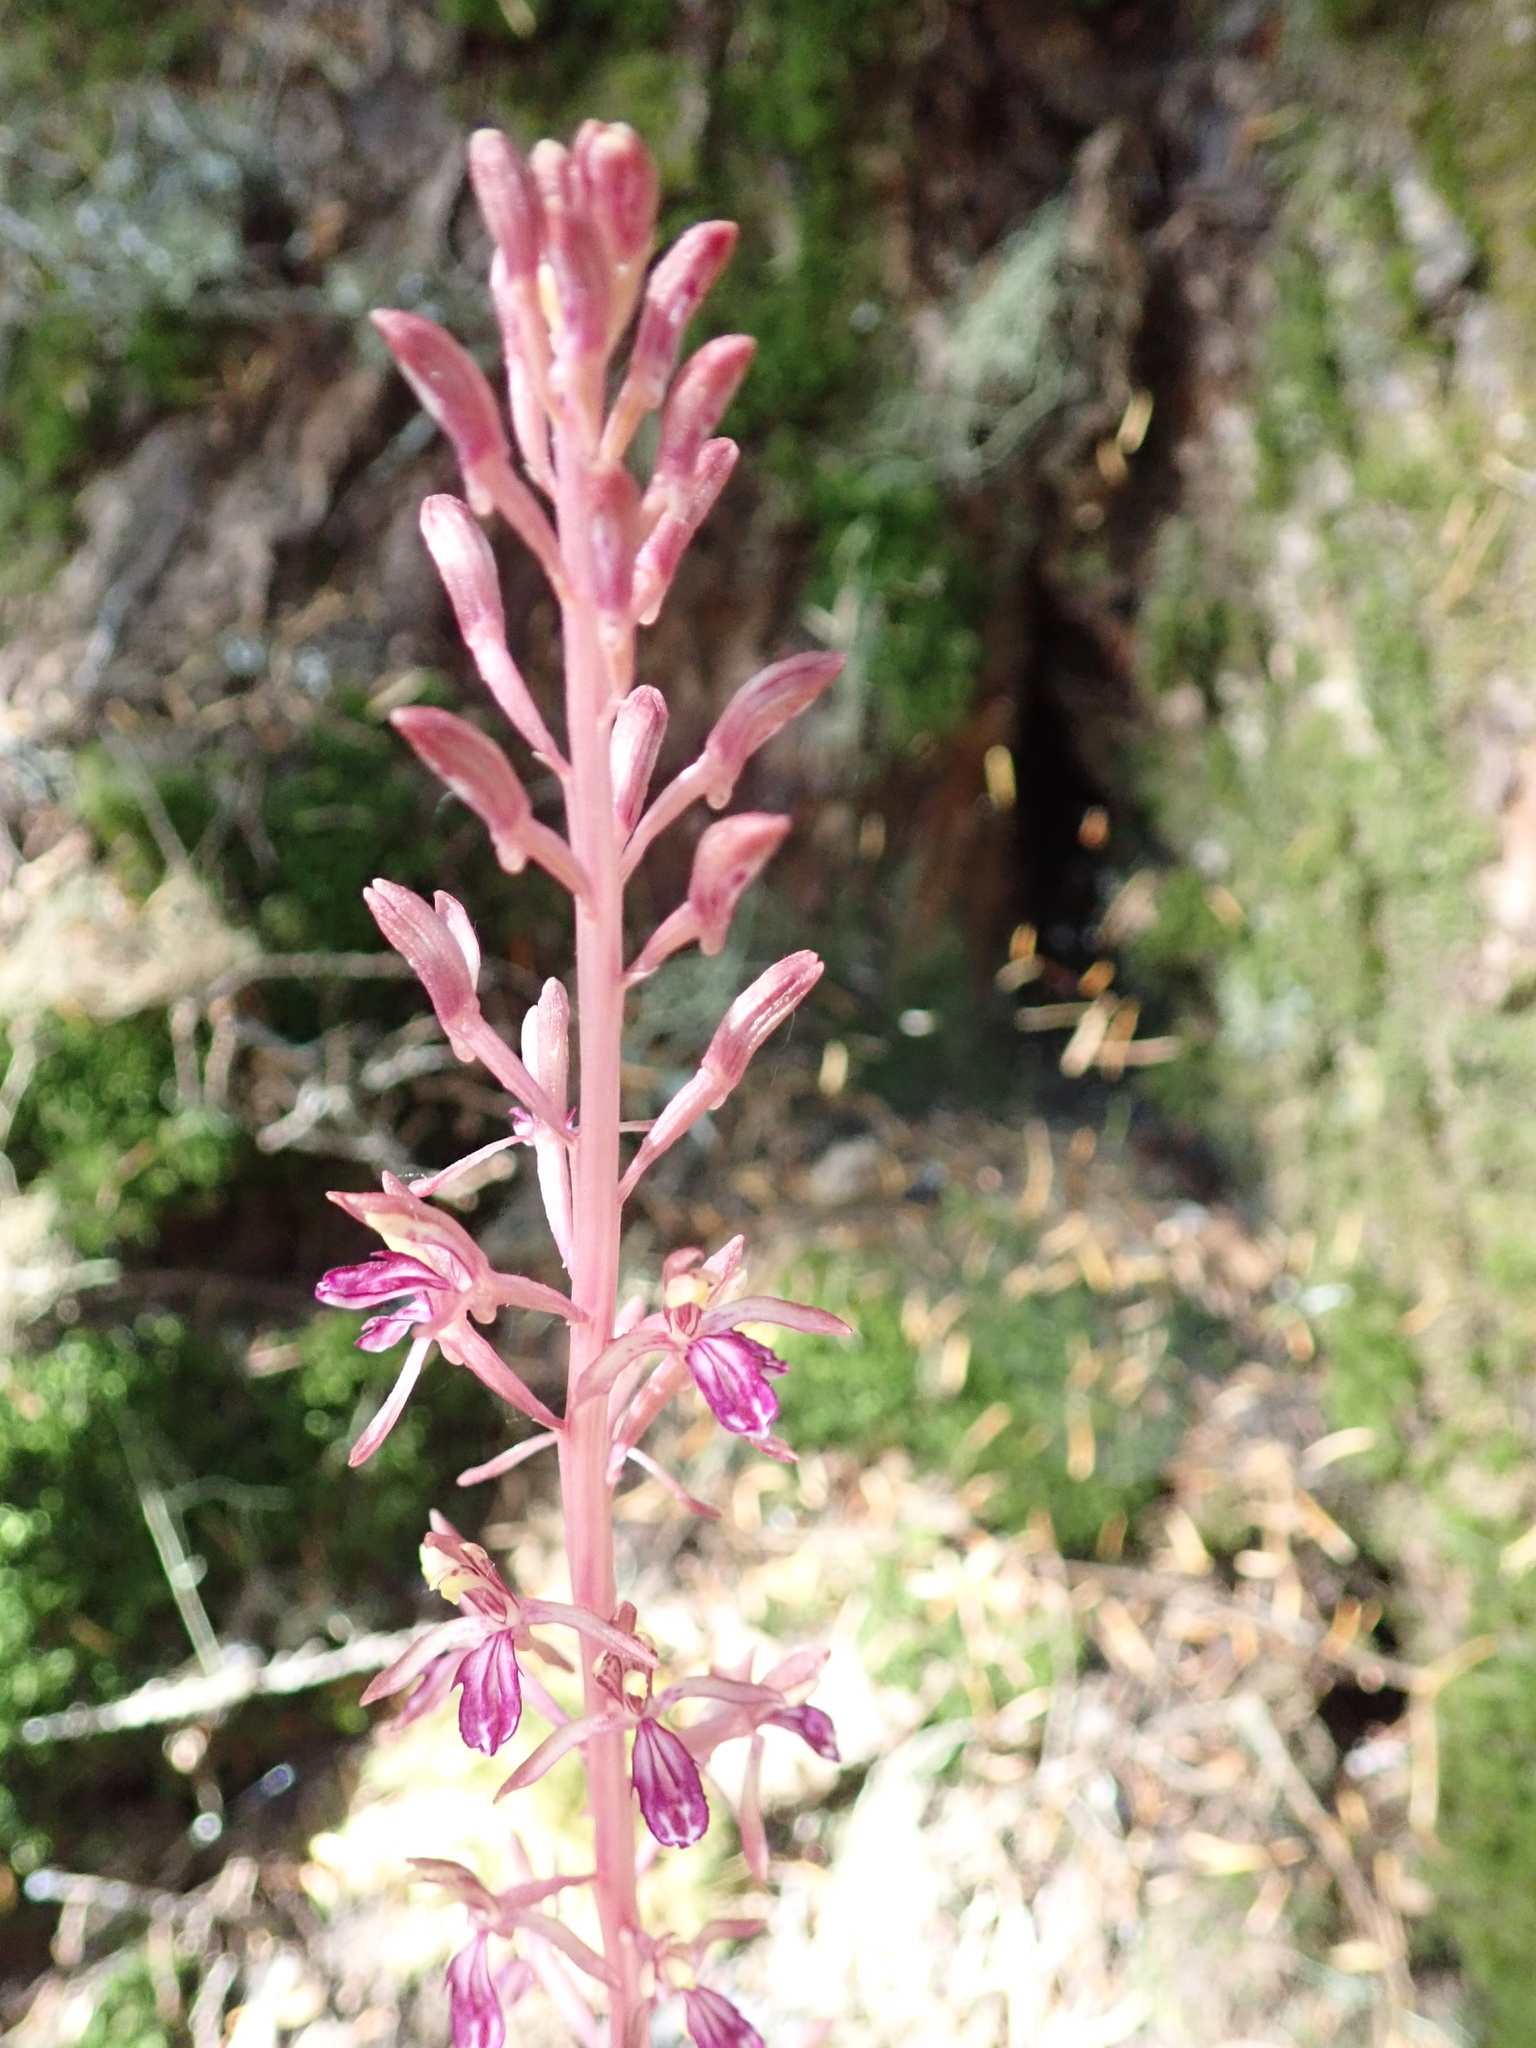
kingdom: Plantae
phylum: Tracheophyta
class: Liliopsida
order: Asparagales
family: Orchidaceae
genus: Corallorhiza
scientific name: Corallorhiza mertensiana
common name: Pacific coralroot
